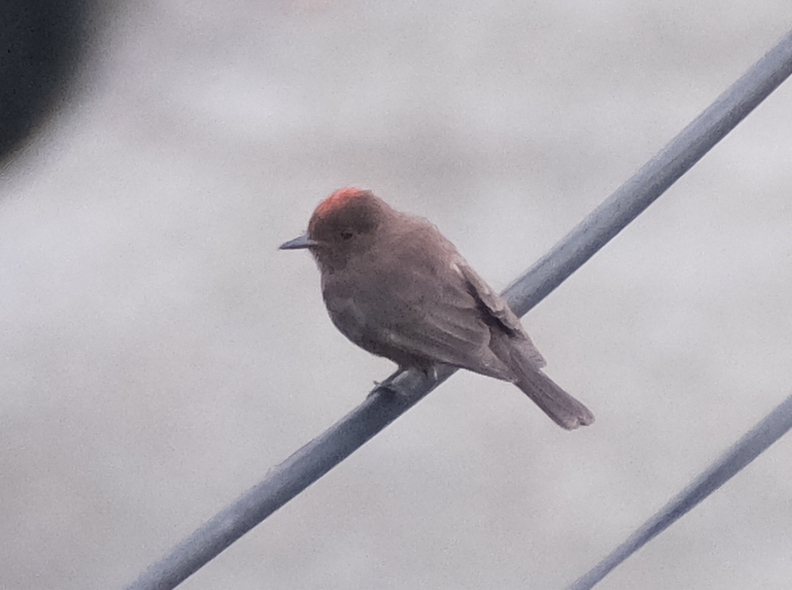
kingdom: Animalia
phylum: Chordata
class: Aves
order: Passeriformes
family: Tyrannidae
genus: Pyrocephalus
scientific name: Pyrocephalus rubinus
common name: Vermilion flycatcher
